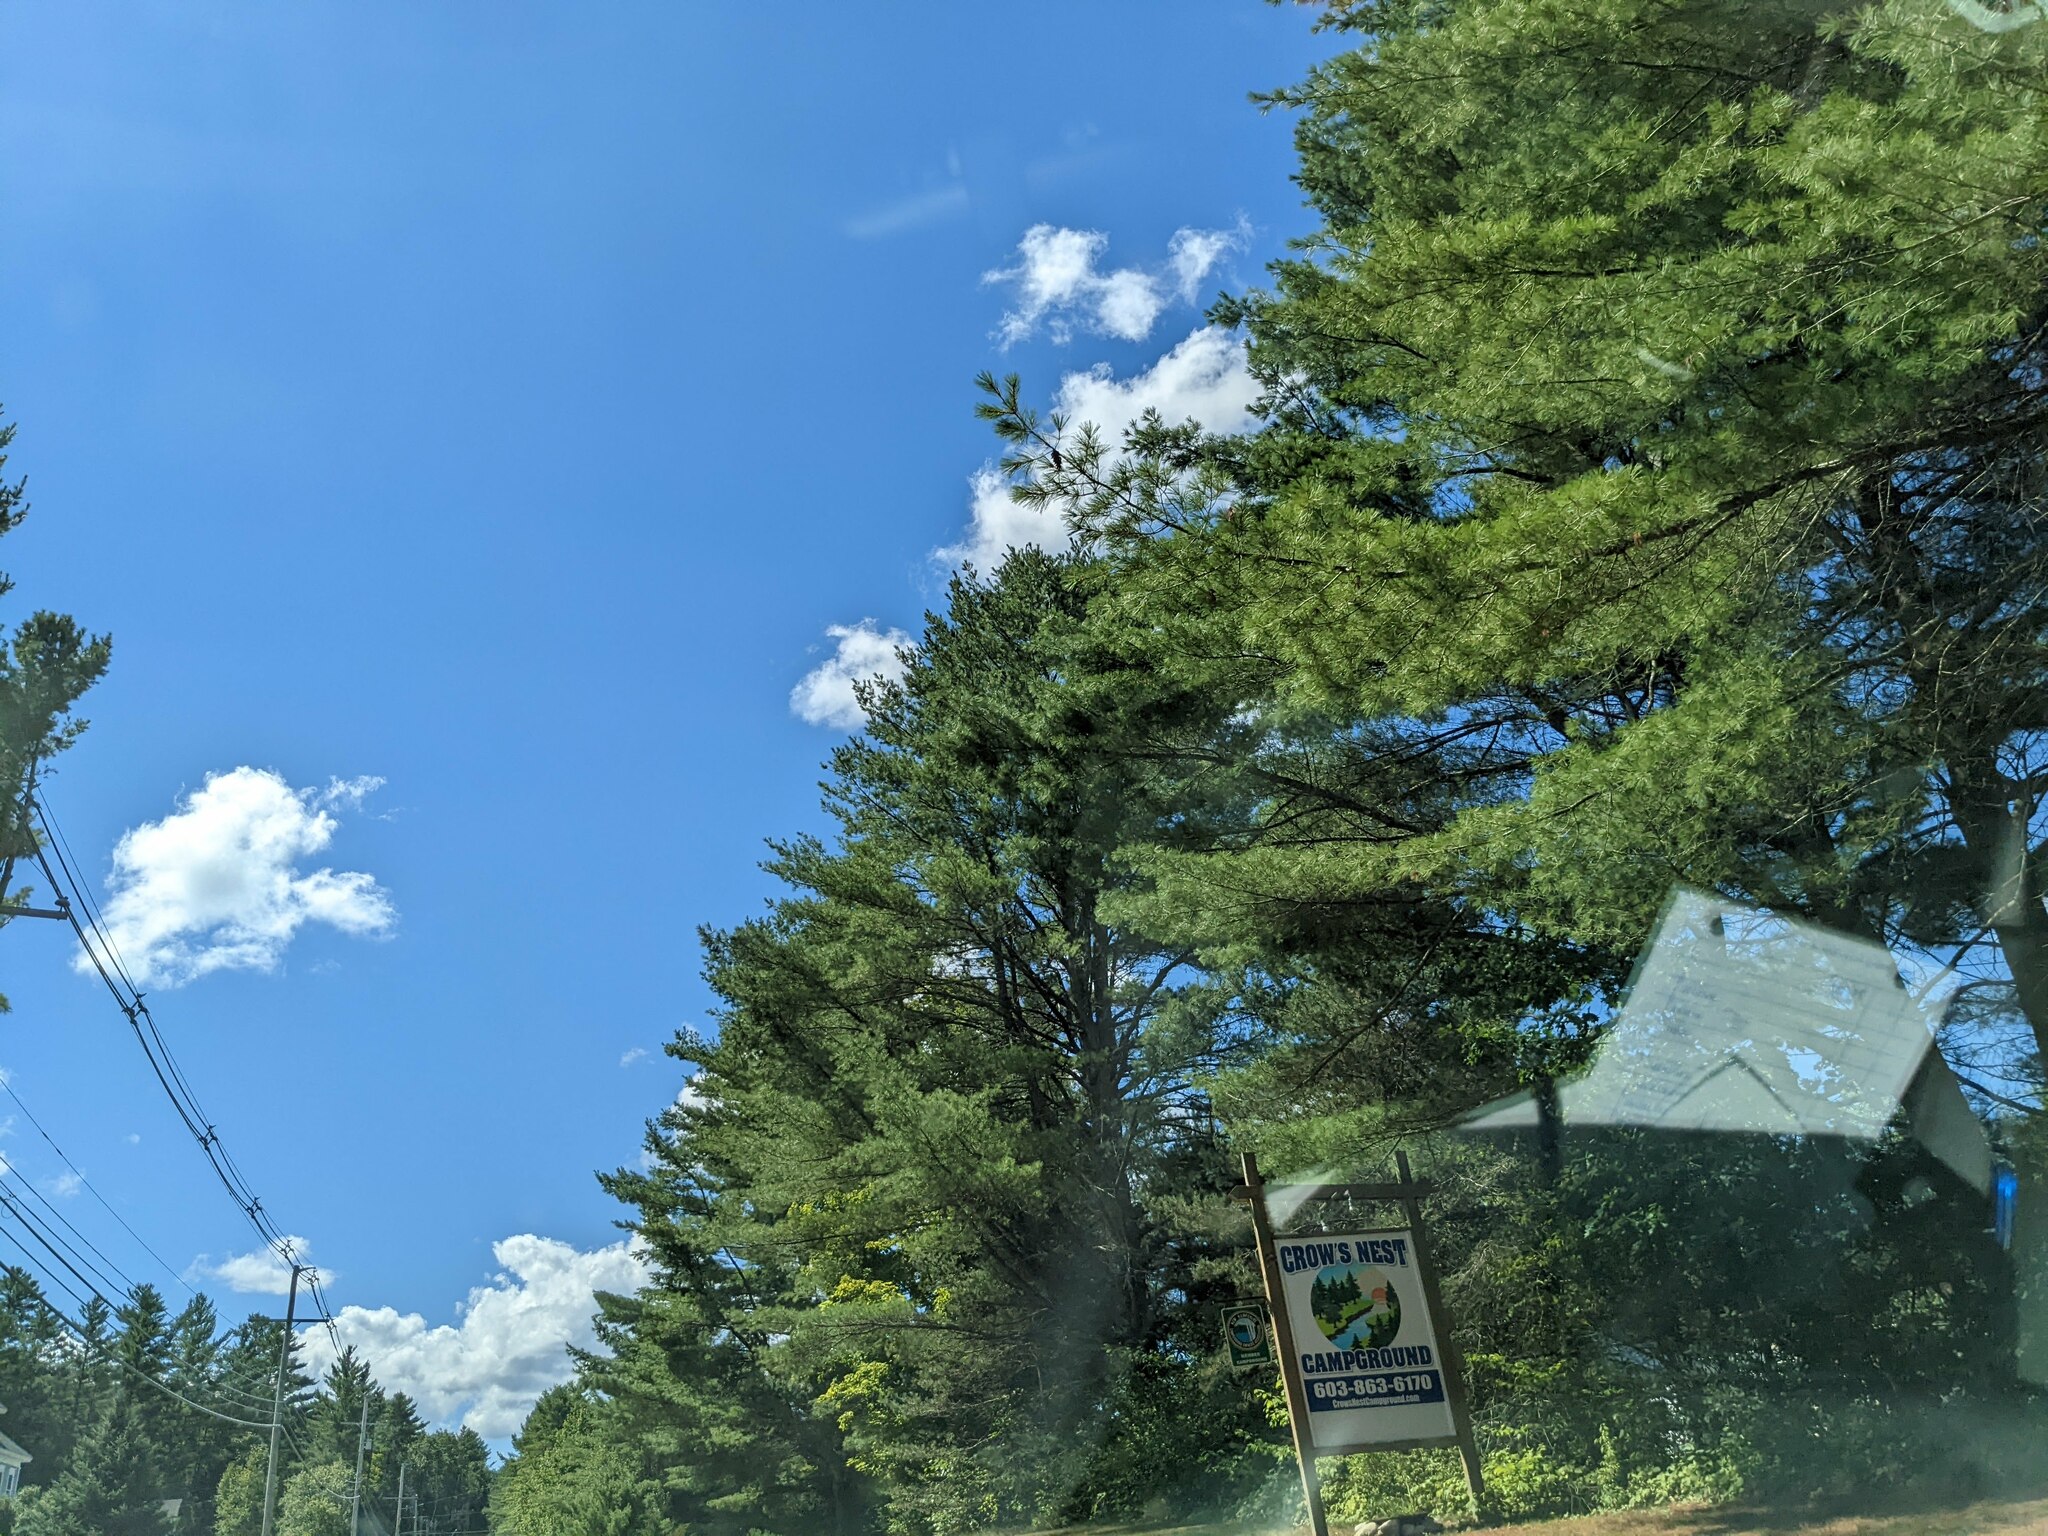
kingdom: Plantae
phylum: Tracheophyta
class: Pinopsida
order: Pinales
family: Pinaceae
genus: Pinus
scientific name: Pinus strobus
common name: Weymouth pine
